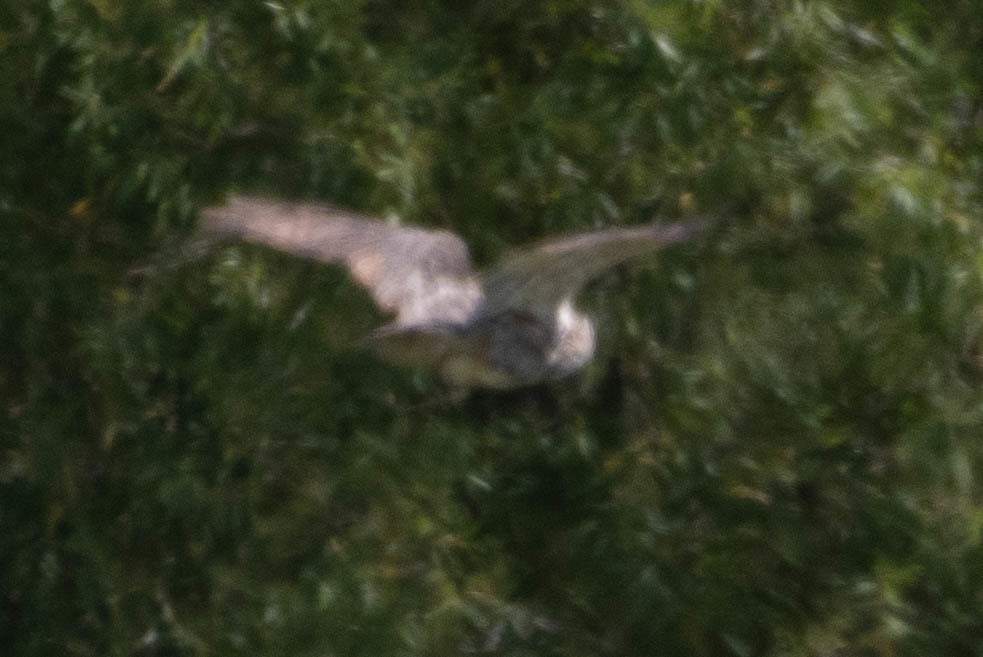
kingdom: Animalia
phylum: Chordata
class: Aves
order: Strigiformes
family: Strigidae
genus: Bubo
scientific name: Bubo virginianus
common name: Great horned owl
